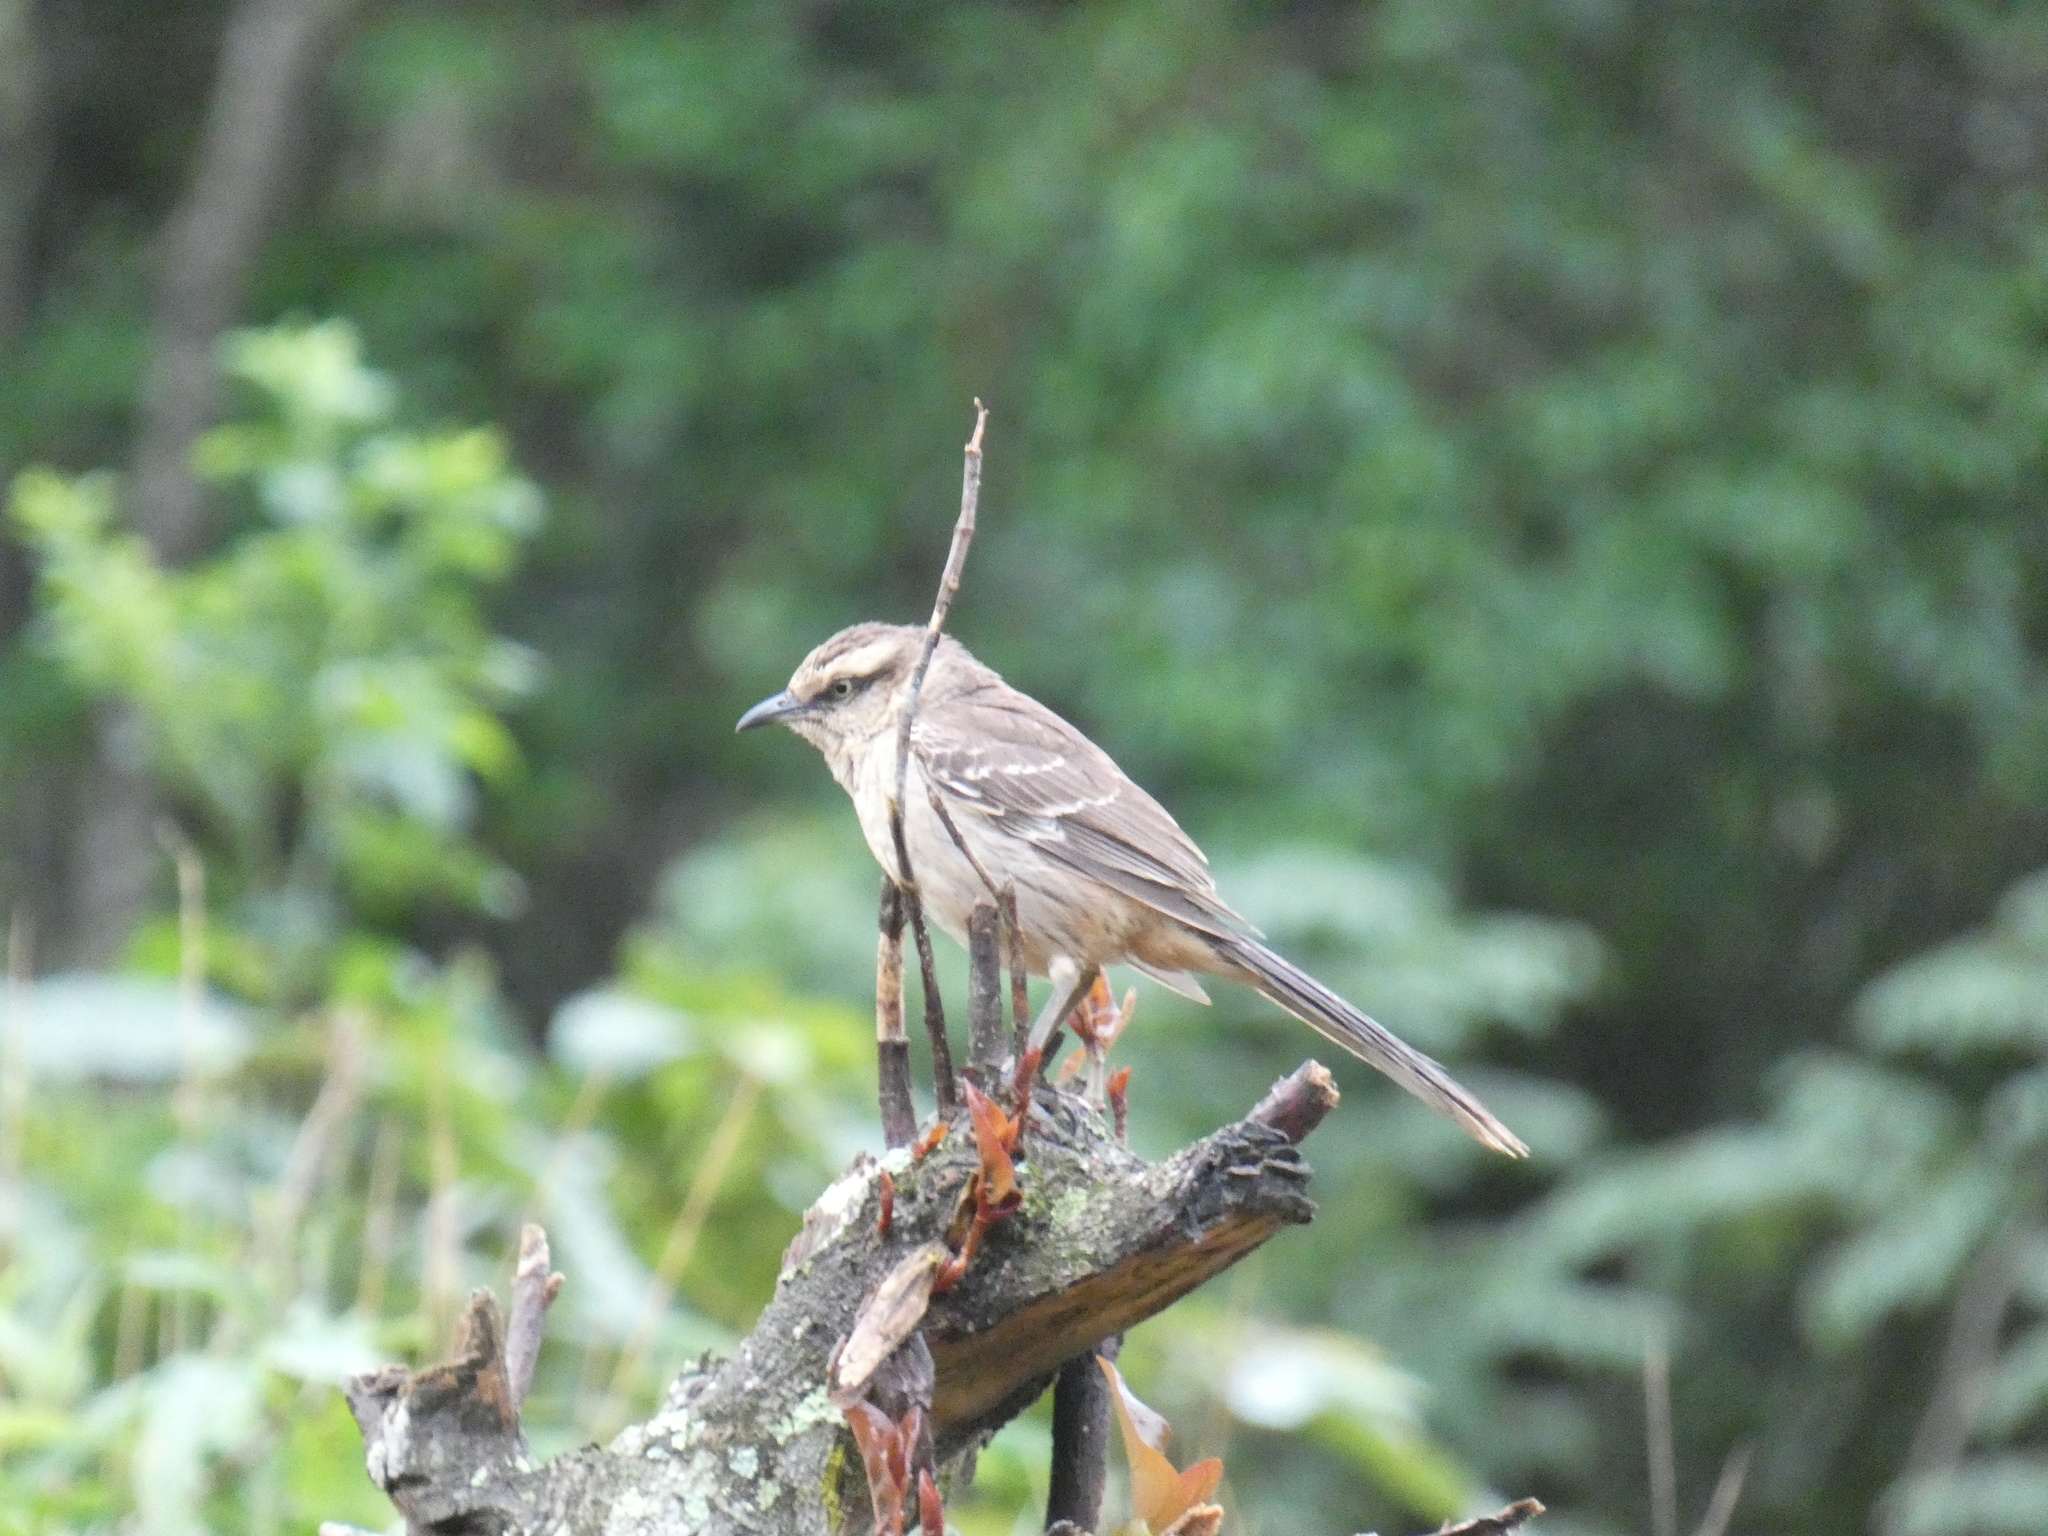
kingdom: Animalia
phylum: Chordata
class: Aves
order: Passeriformes
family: Mimidae
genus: Mimus
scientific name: Mimus saturninus
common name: Chalk-browed mockingbird
